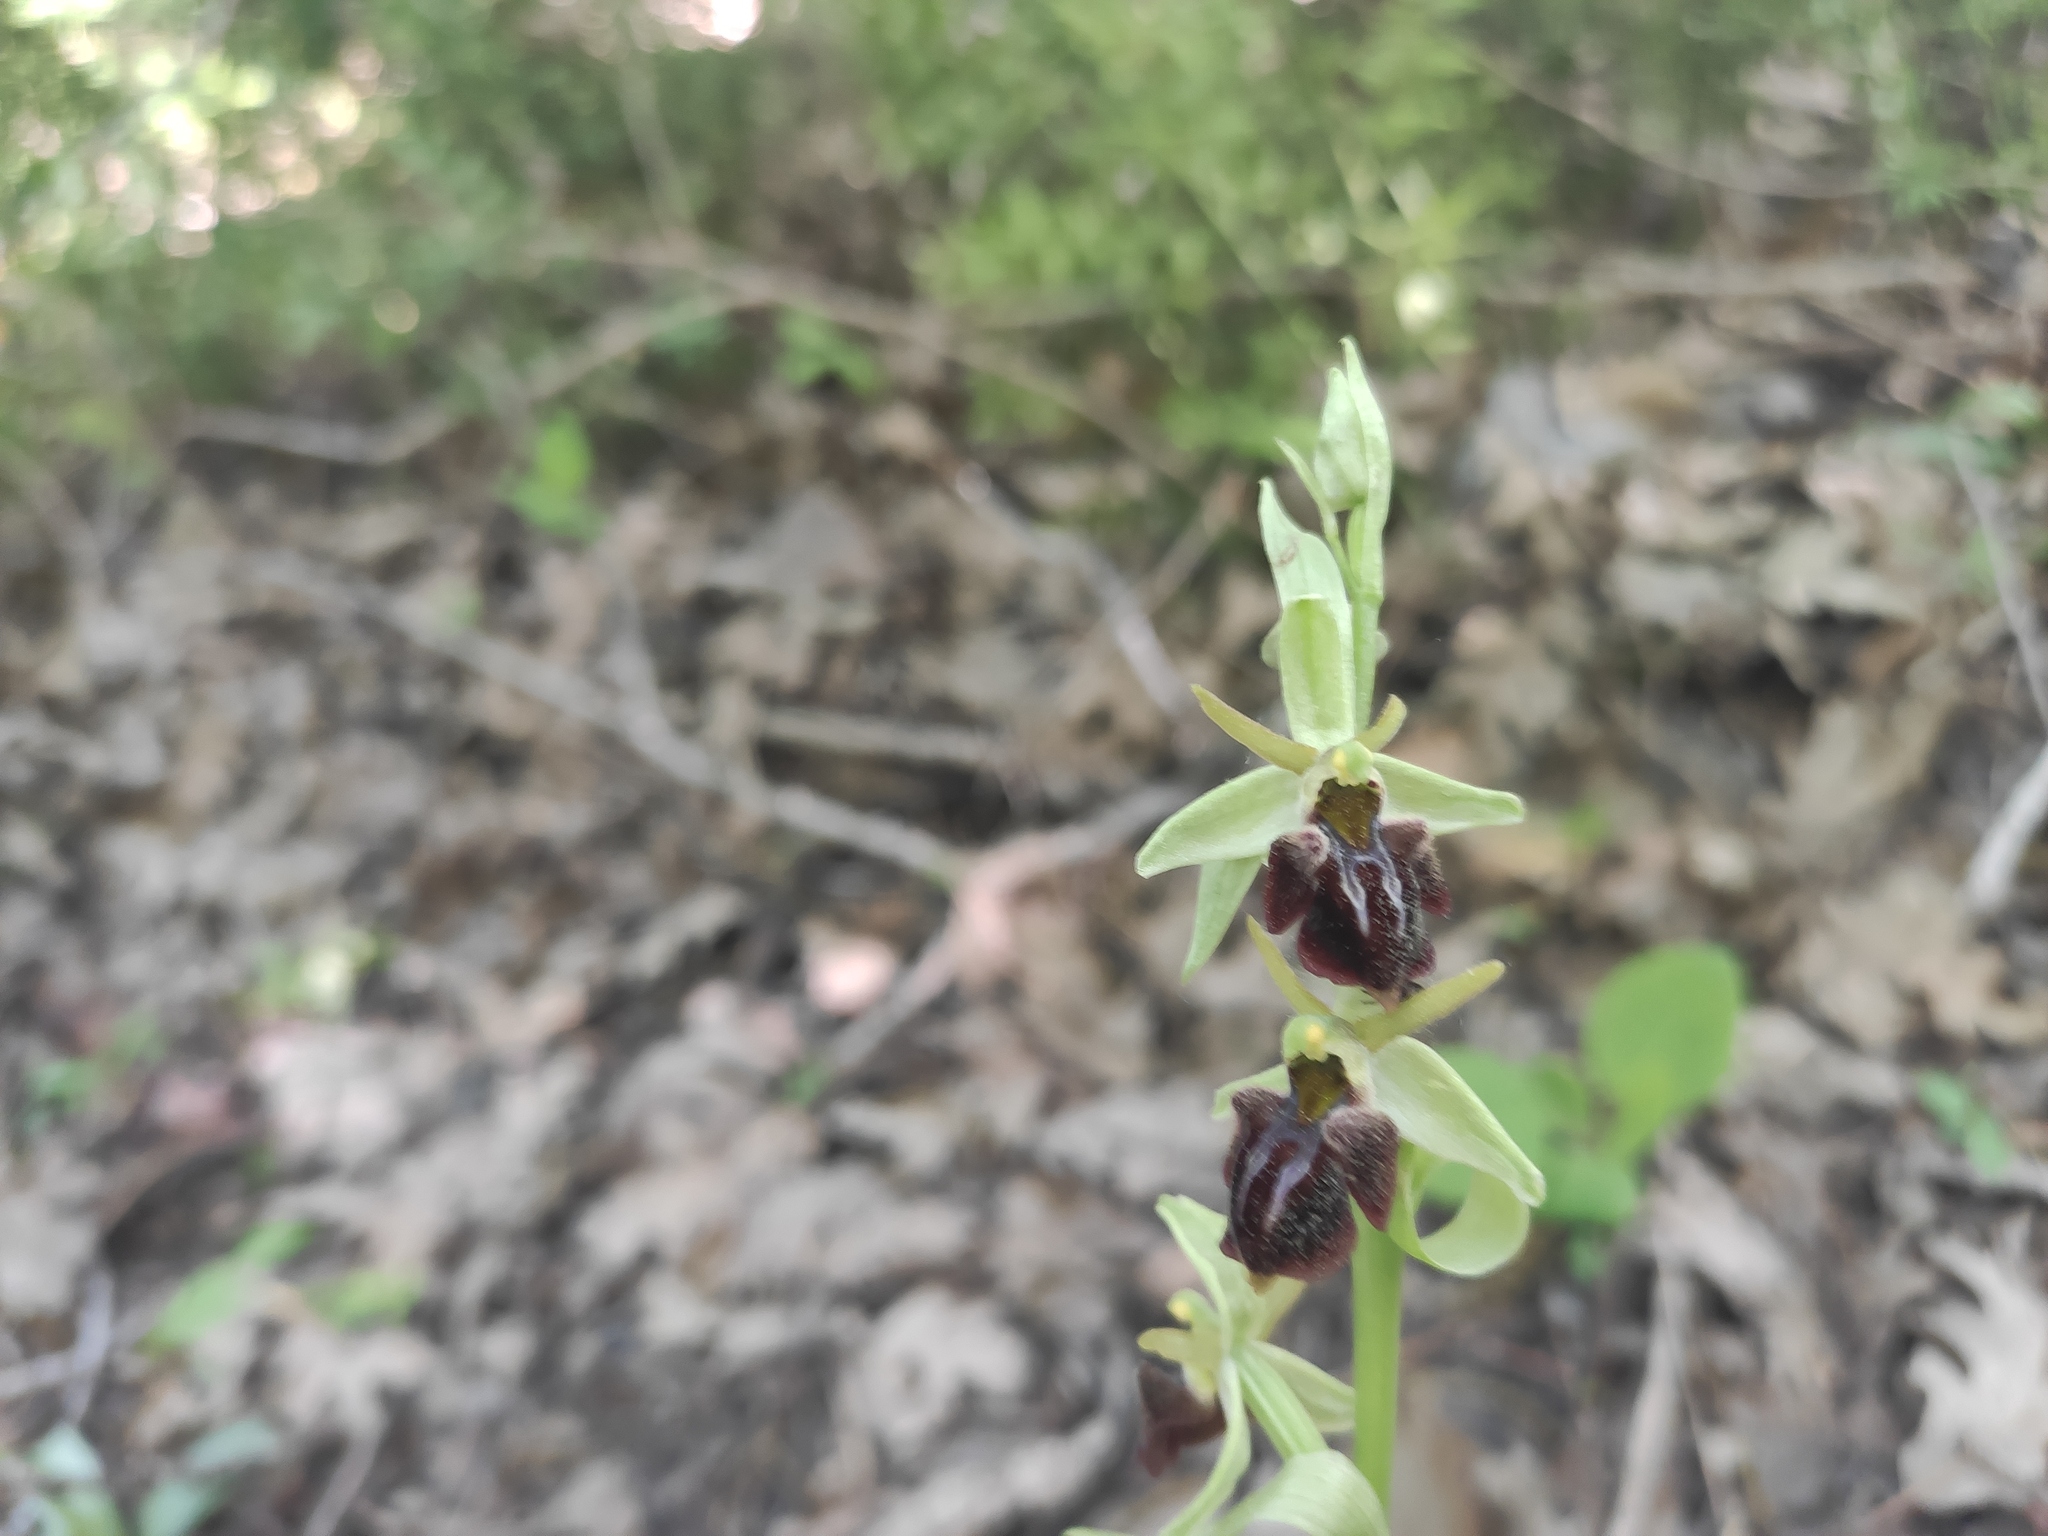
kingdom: Plantae
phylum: Tracheophyta
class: Liliopsida
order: Asparagales
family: Orchidaceae
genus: Ophrys
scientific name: Ophrys sphegodes
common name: Early spider-orchid
